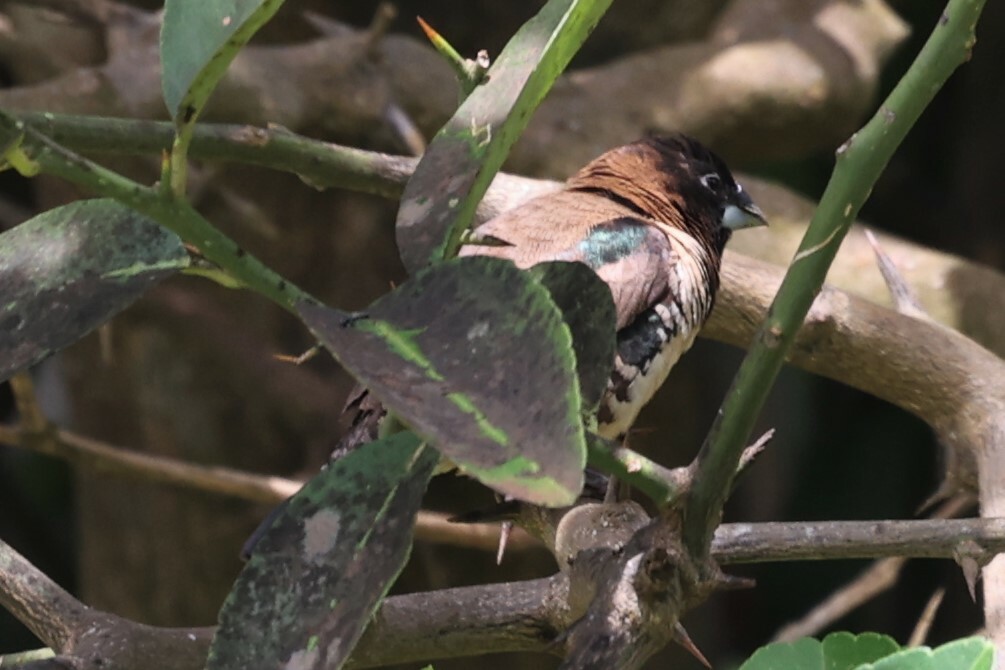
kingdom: Animalia
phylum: Chordata
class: Aves
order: Passeriformes
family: Estrildidae
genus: Lonchura
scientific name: Lonchura cucullata
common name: Bronze mannikin
